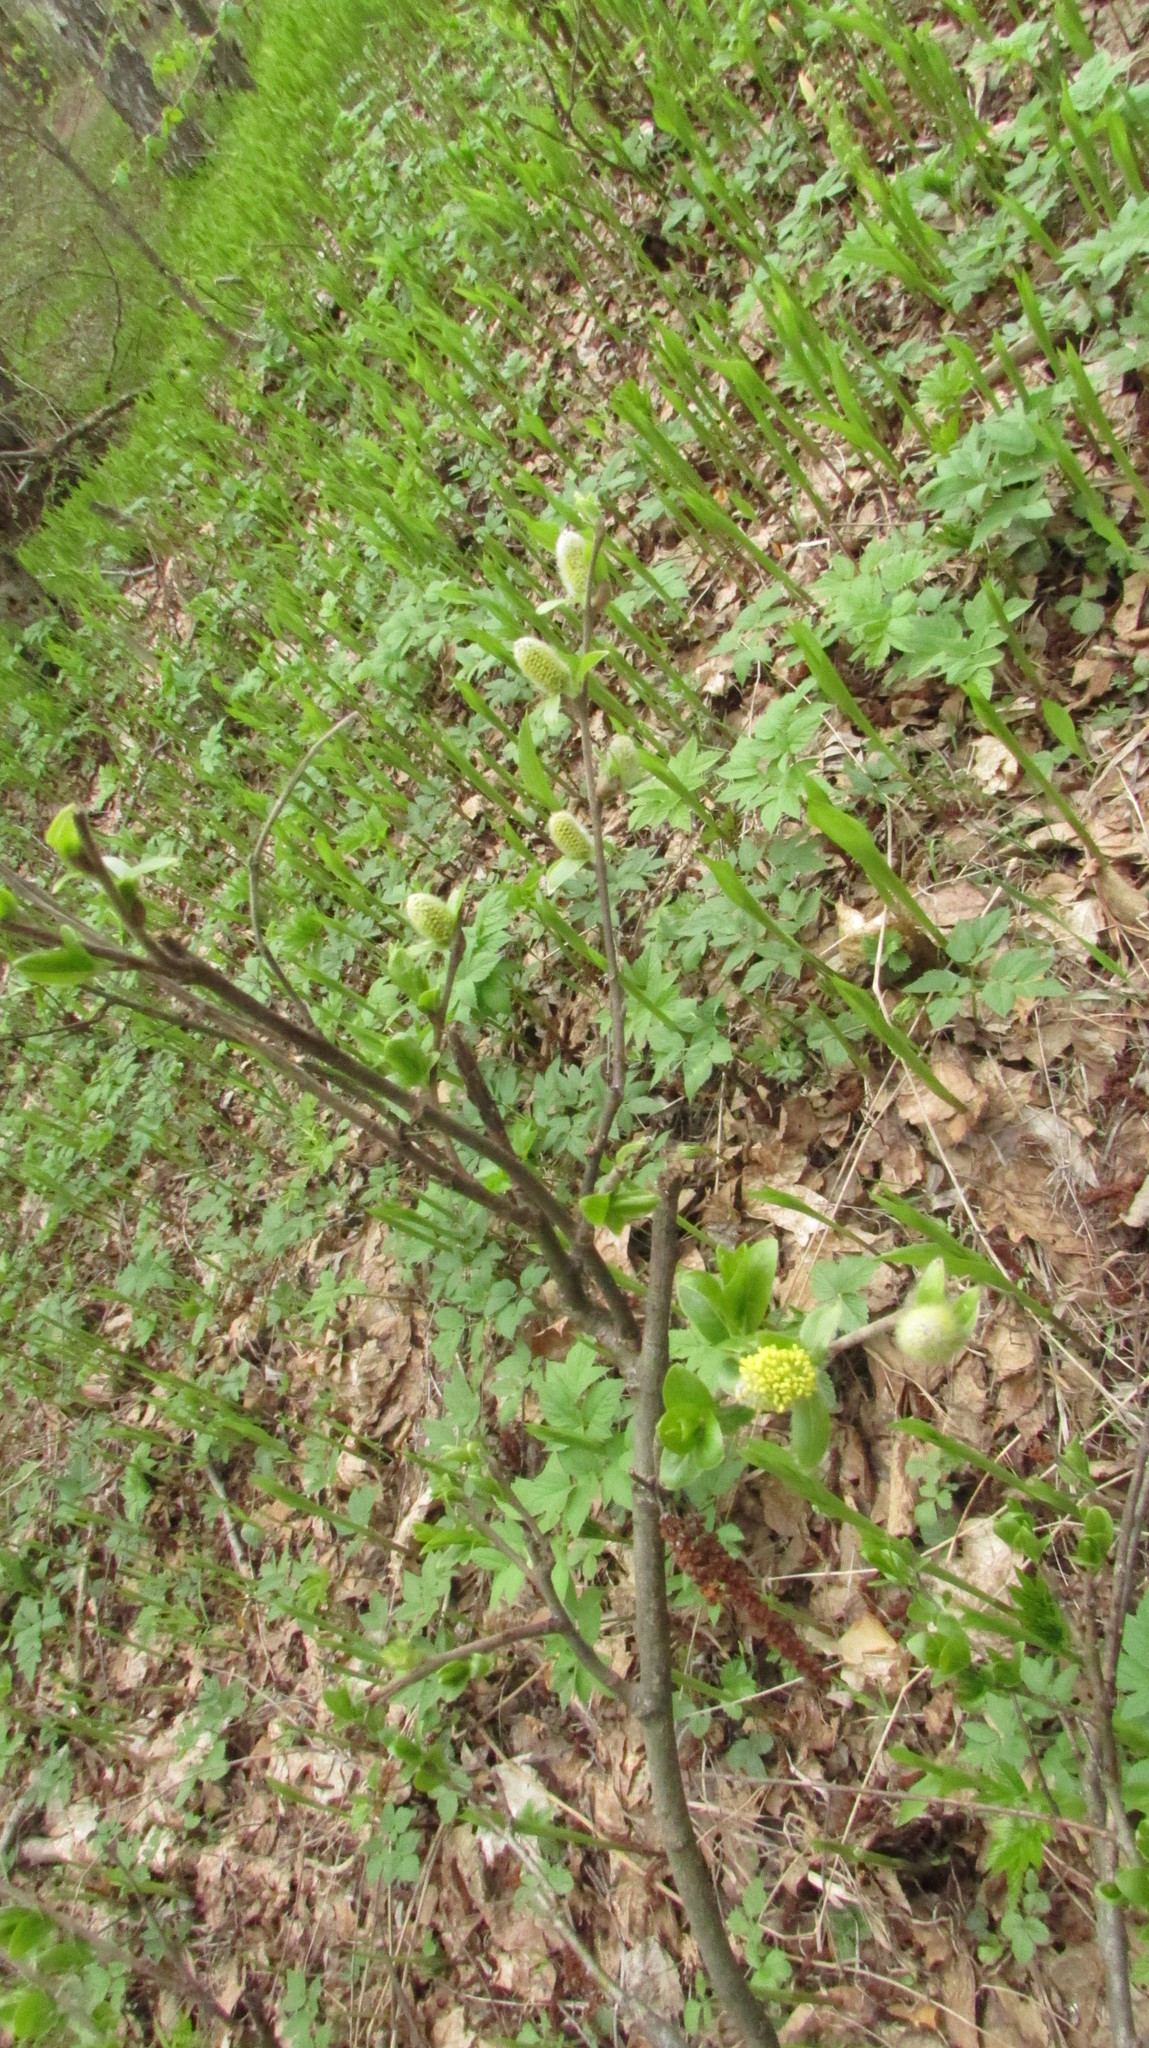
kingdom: Plantae
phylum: Tracheophyta
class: Magnoliopsida
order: Malpighiales
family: Salicaceae
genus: Salix
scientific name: Salix myrsinifolia
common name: Dark-leaved willow
